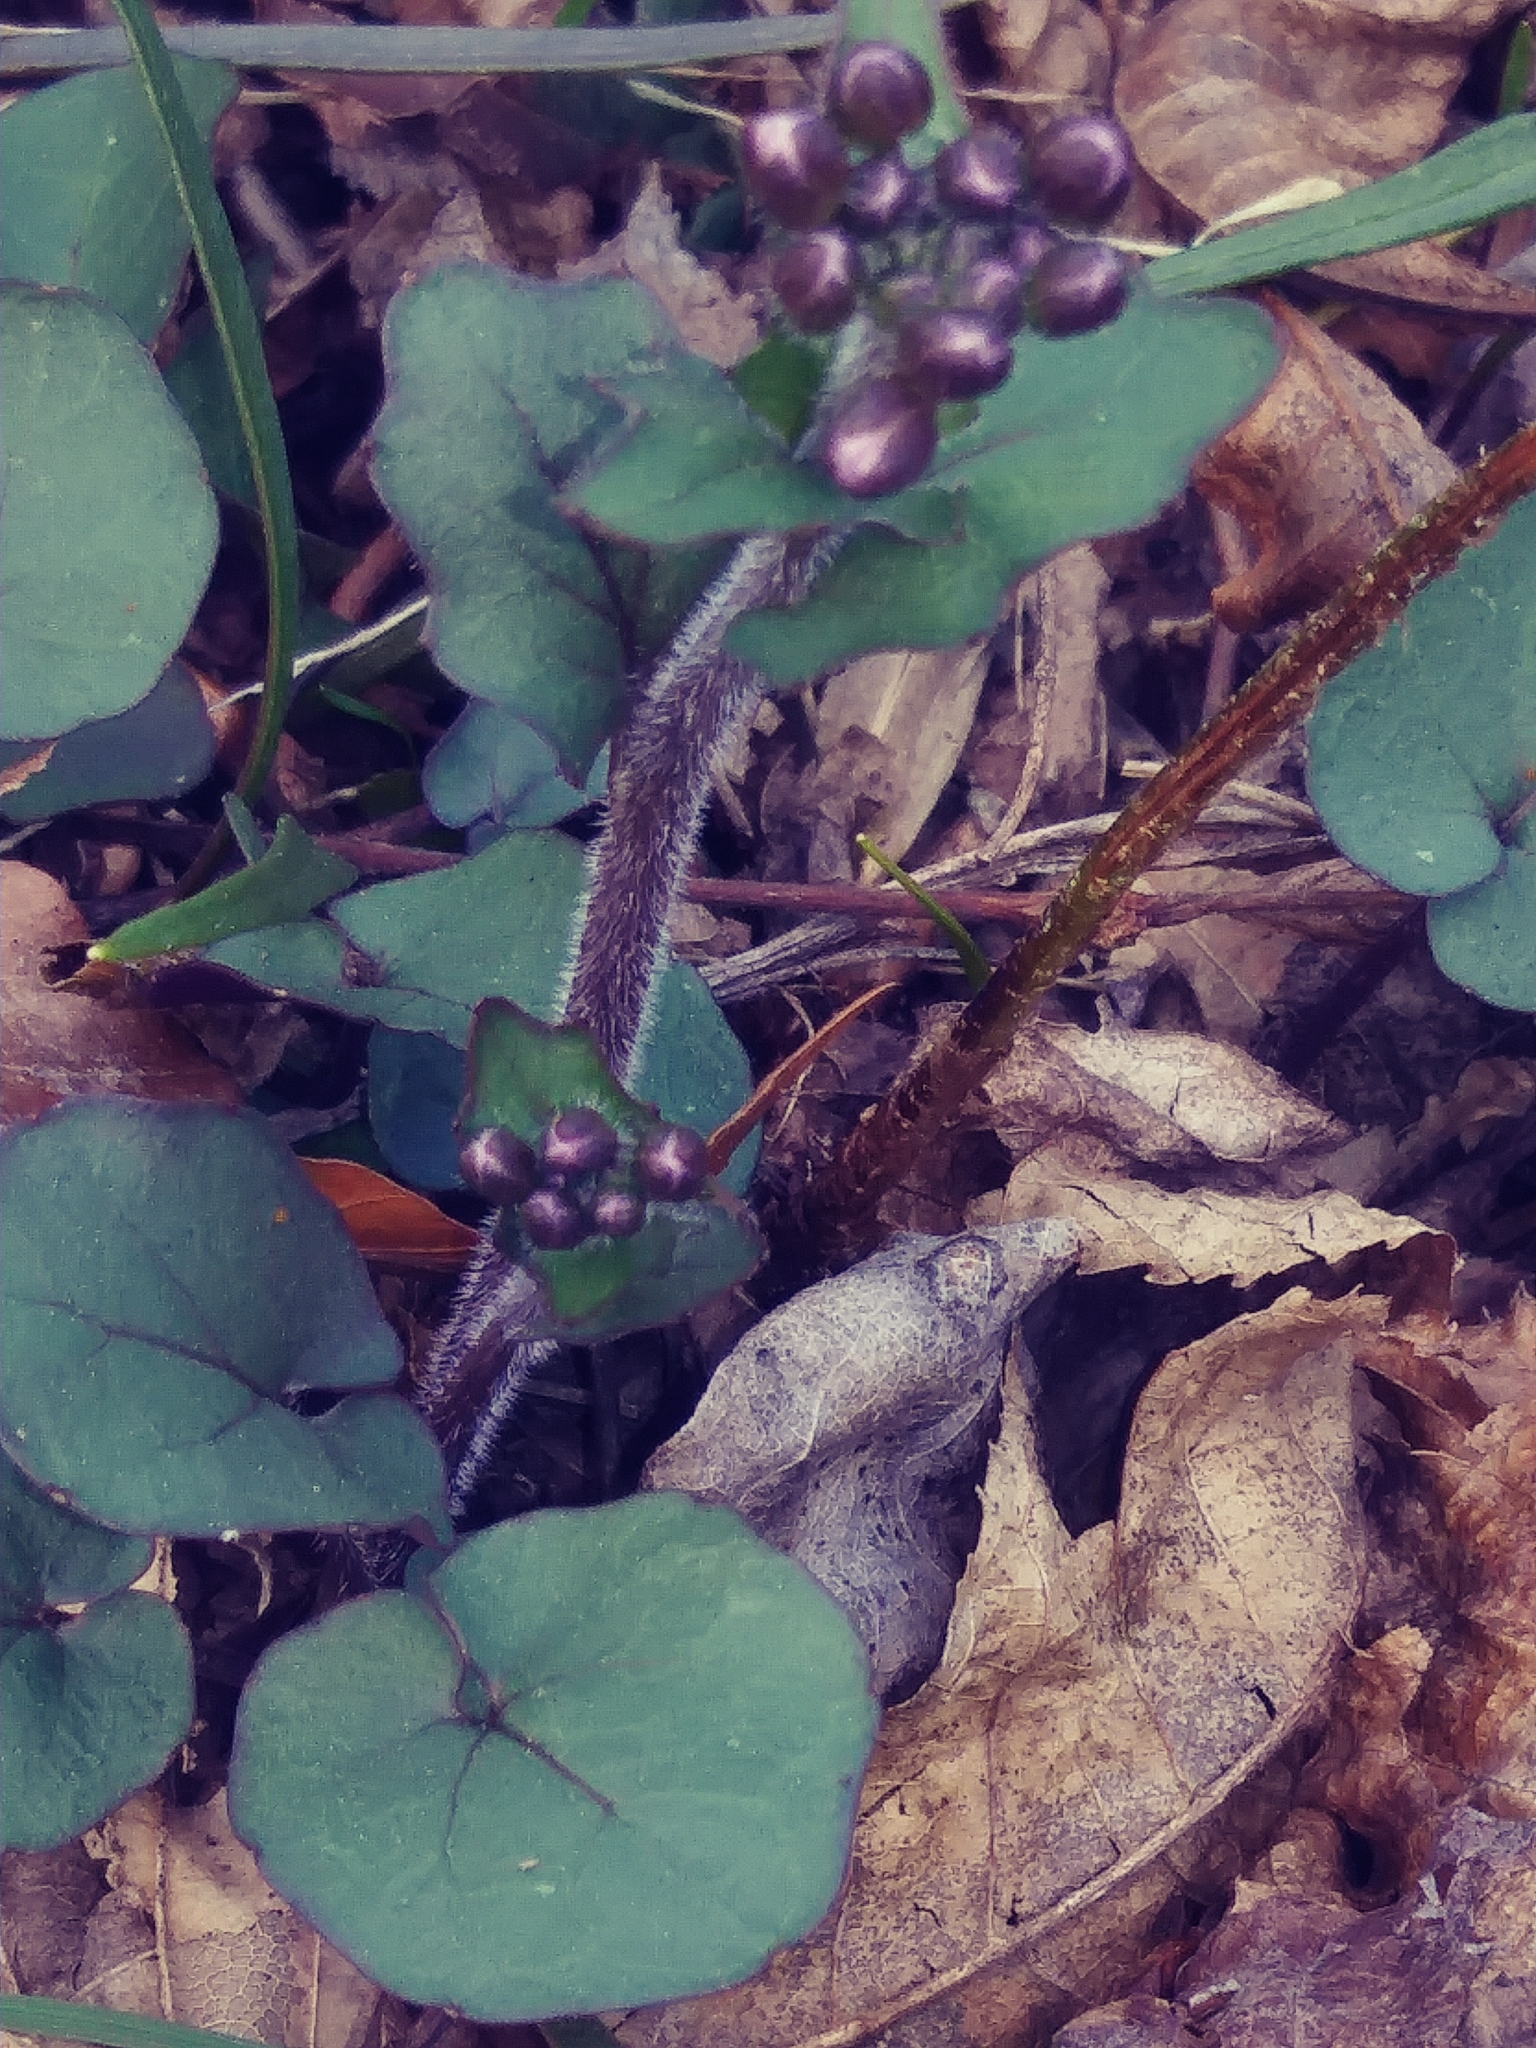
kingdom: Plantae
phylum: Tracheophyta
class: Magnoliopsida
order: Brassicales
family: Brassicaceae
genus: Cardamine
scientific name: Cardamine douglassii
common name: Purple cress
